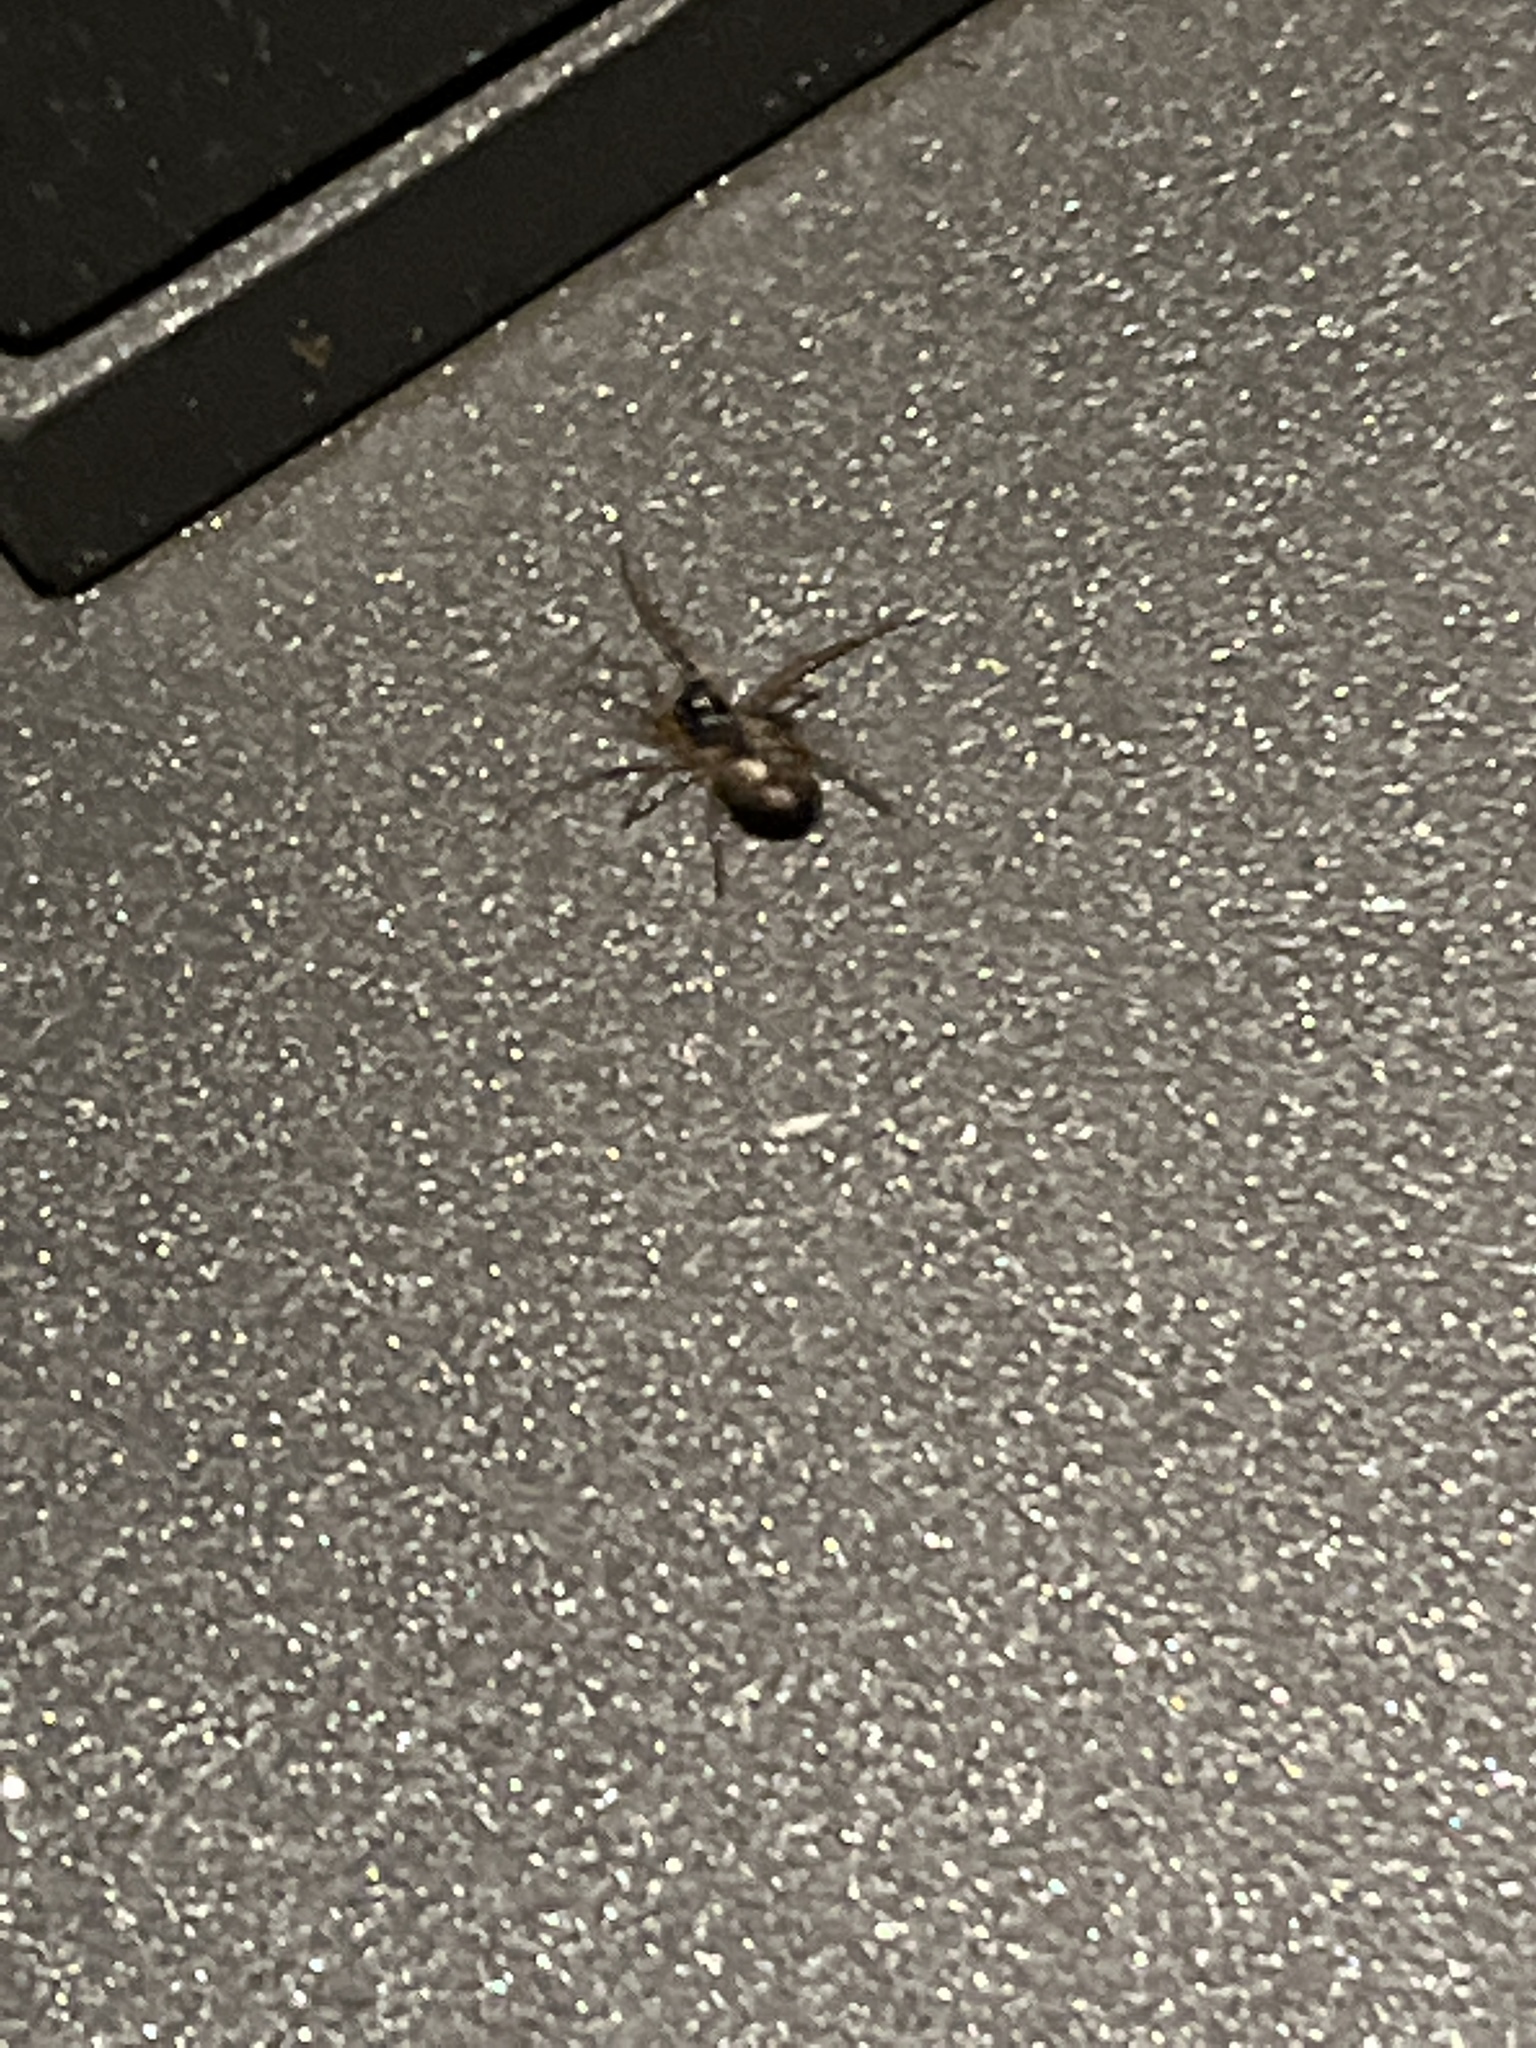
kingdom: Animalia
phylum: Arthropoda
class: Arachnida
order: Araneae
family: Tetragnathidae
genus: Pachygnatha
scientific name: Pachygnatha degeeri
